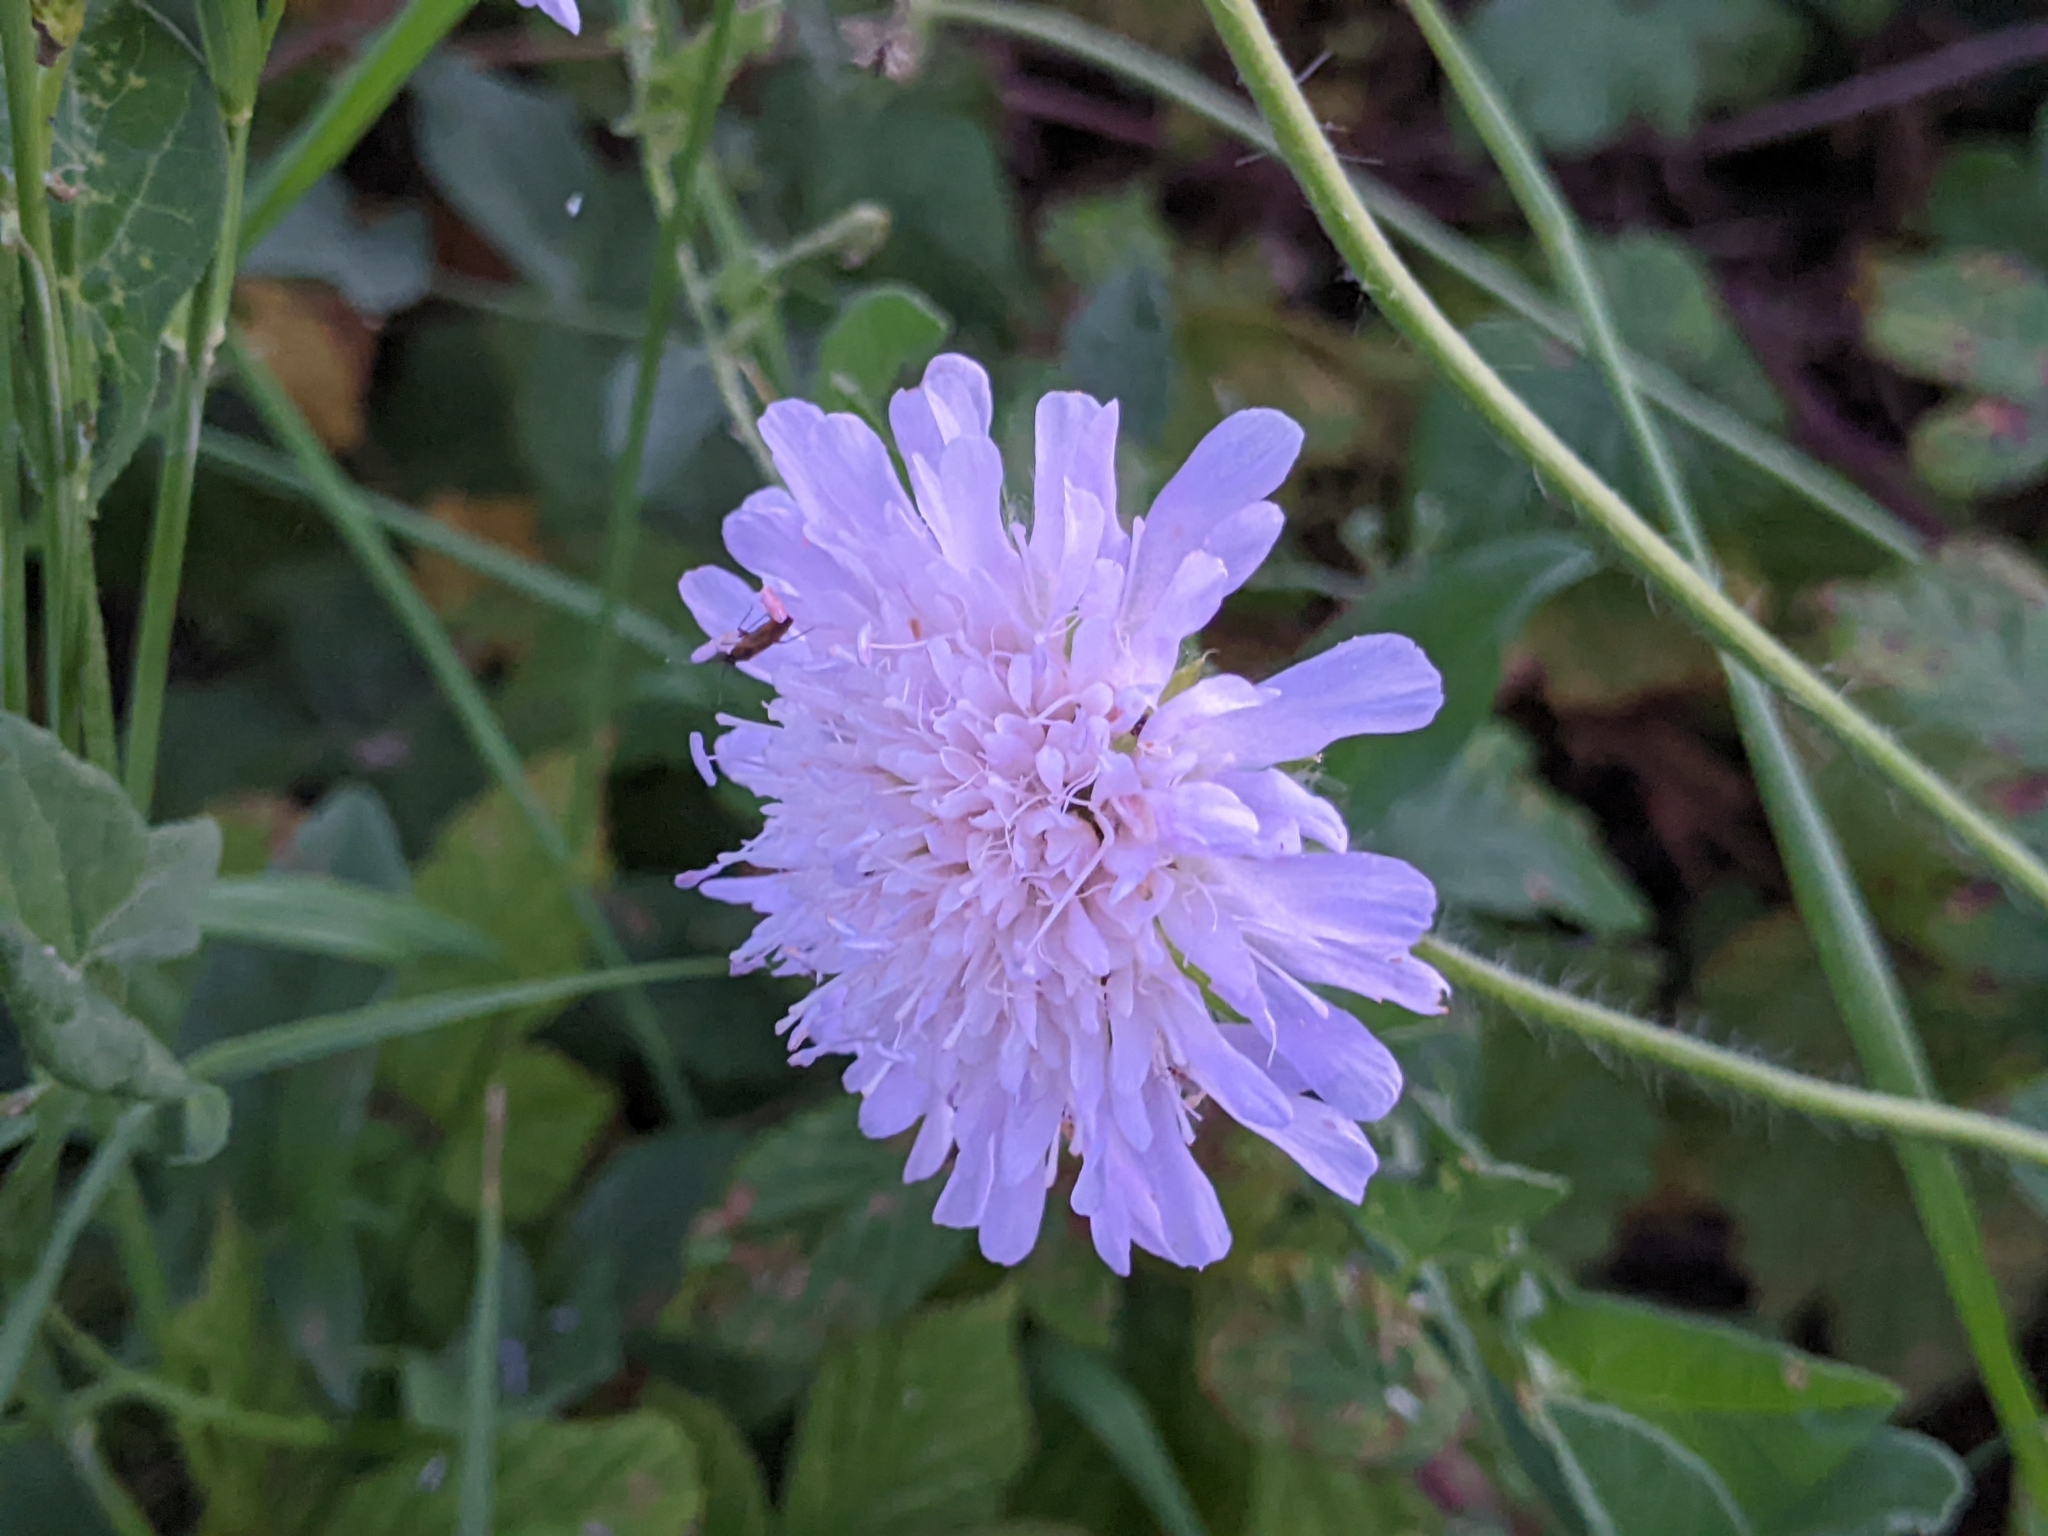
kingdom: Plantae
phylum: Tracheophyta
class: Magnoliopsida
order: Dipsacales
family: Caprifoliaceae
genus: Knautia
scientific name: Knautia arvensis
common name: Field scabiosa
